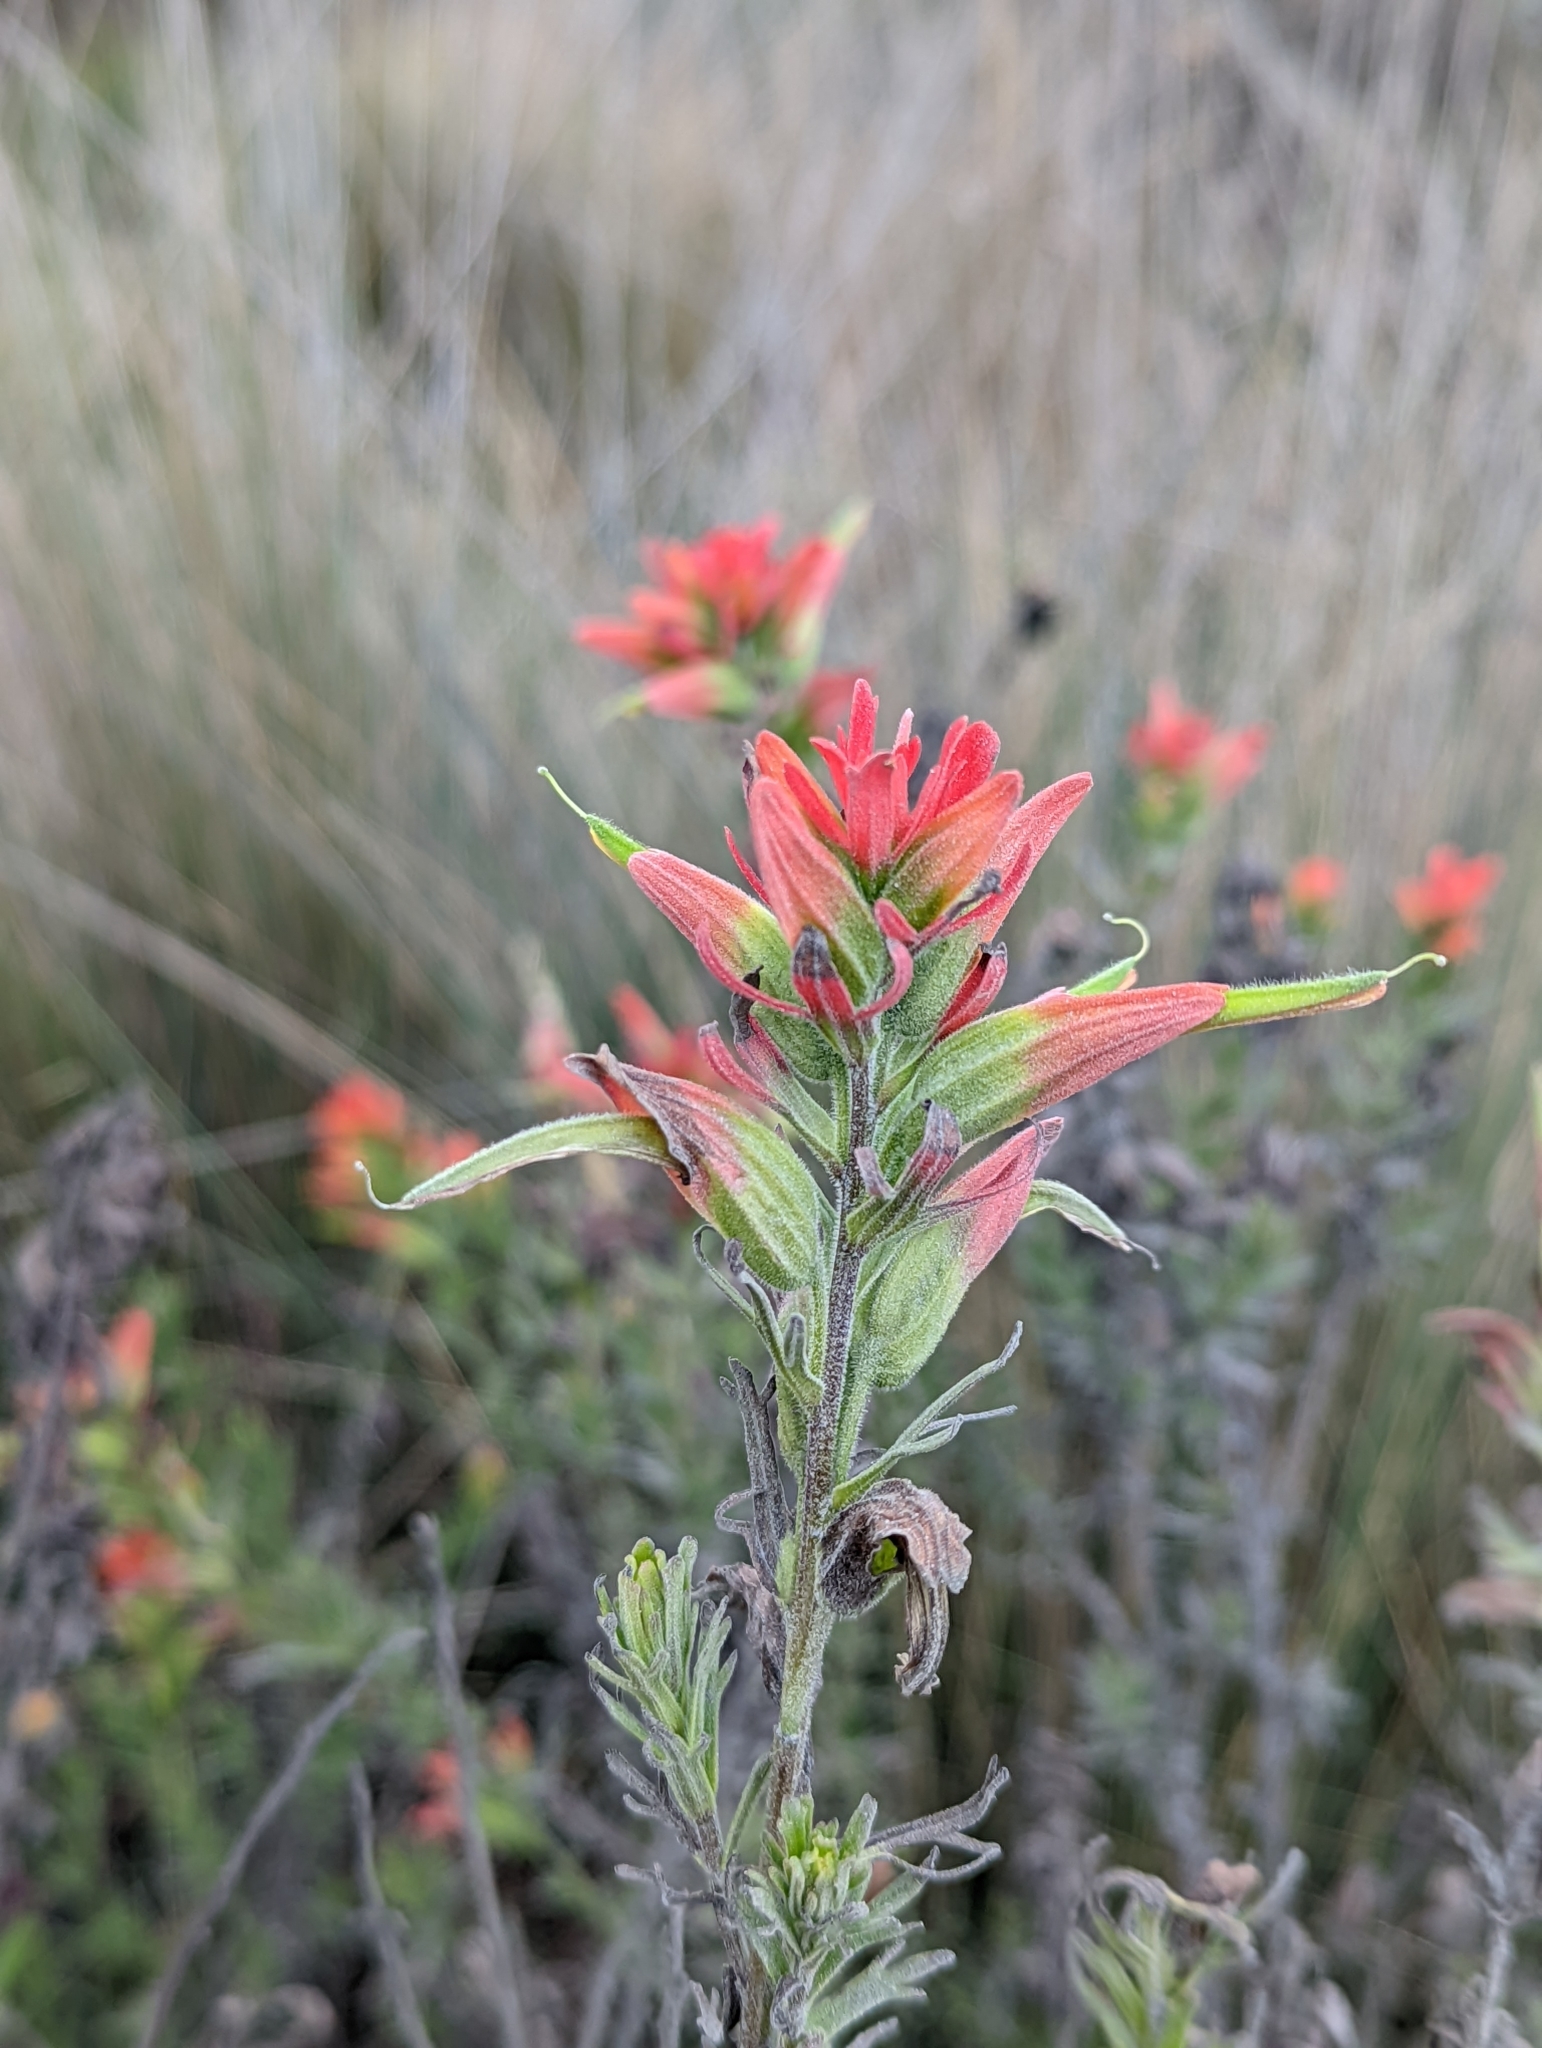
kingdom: Plantae
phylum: Tracheophyta
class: Magnoliopsida
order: Lamiales
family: Orobanchaceae
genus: Castilleja
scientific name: Castilleja fissifolia
